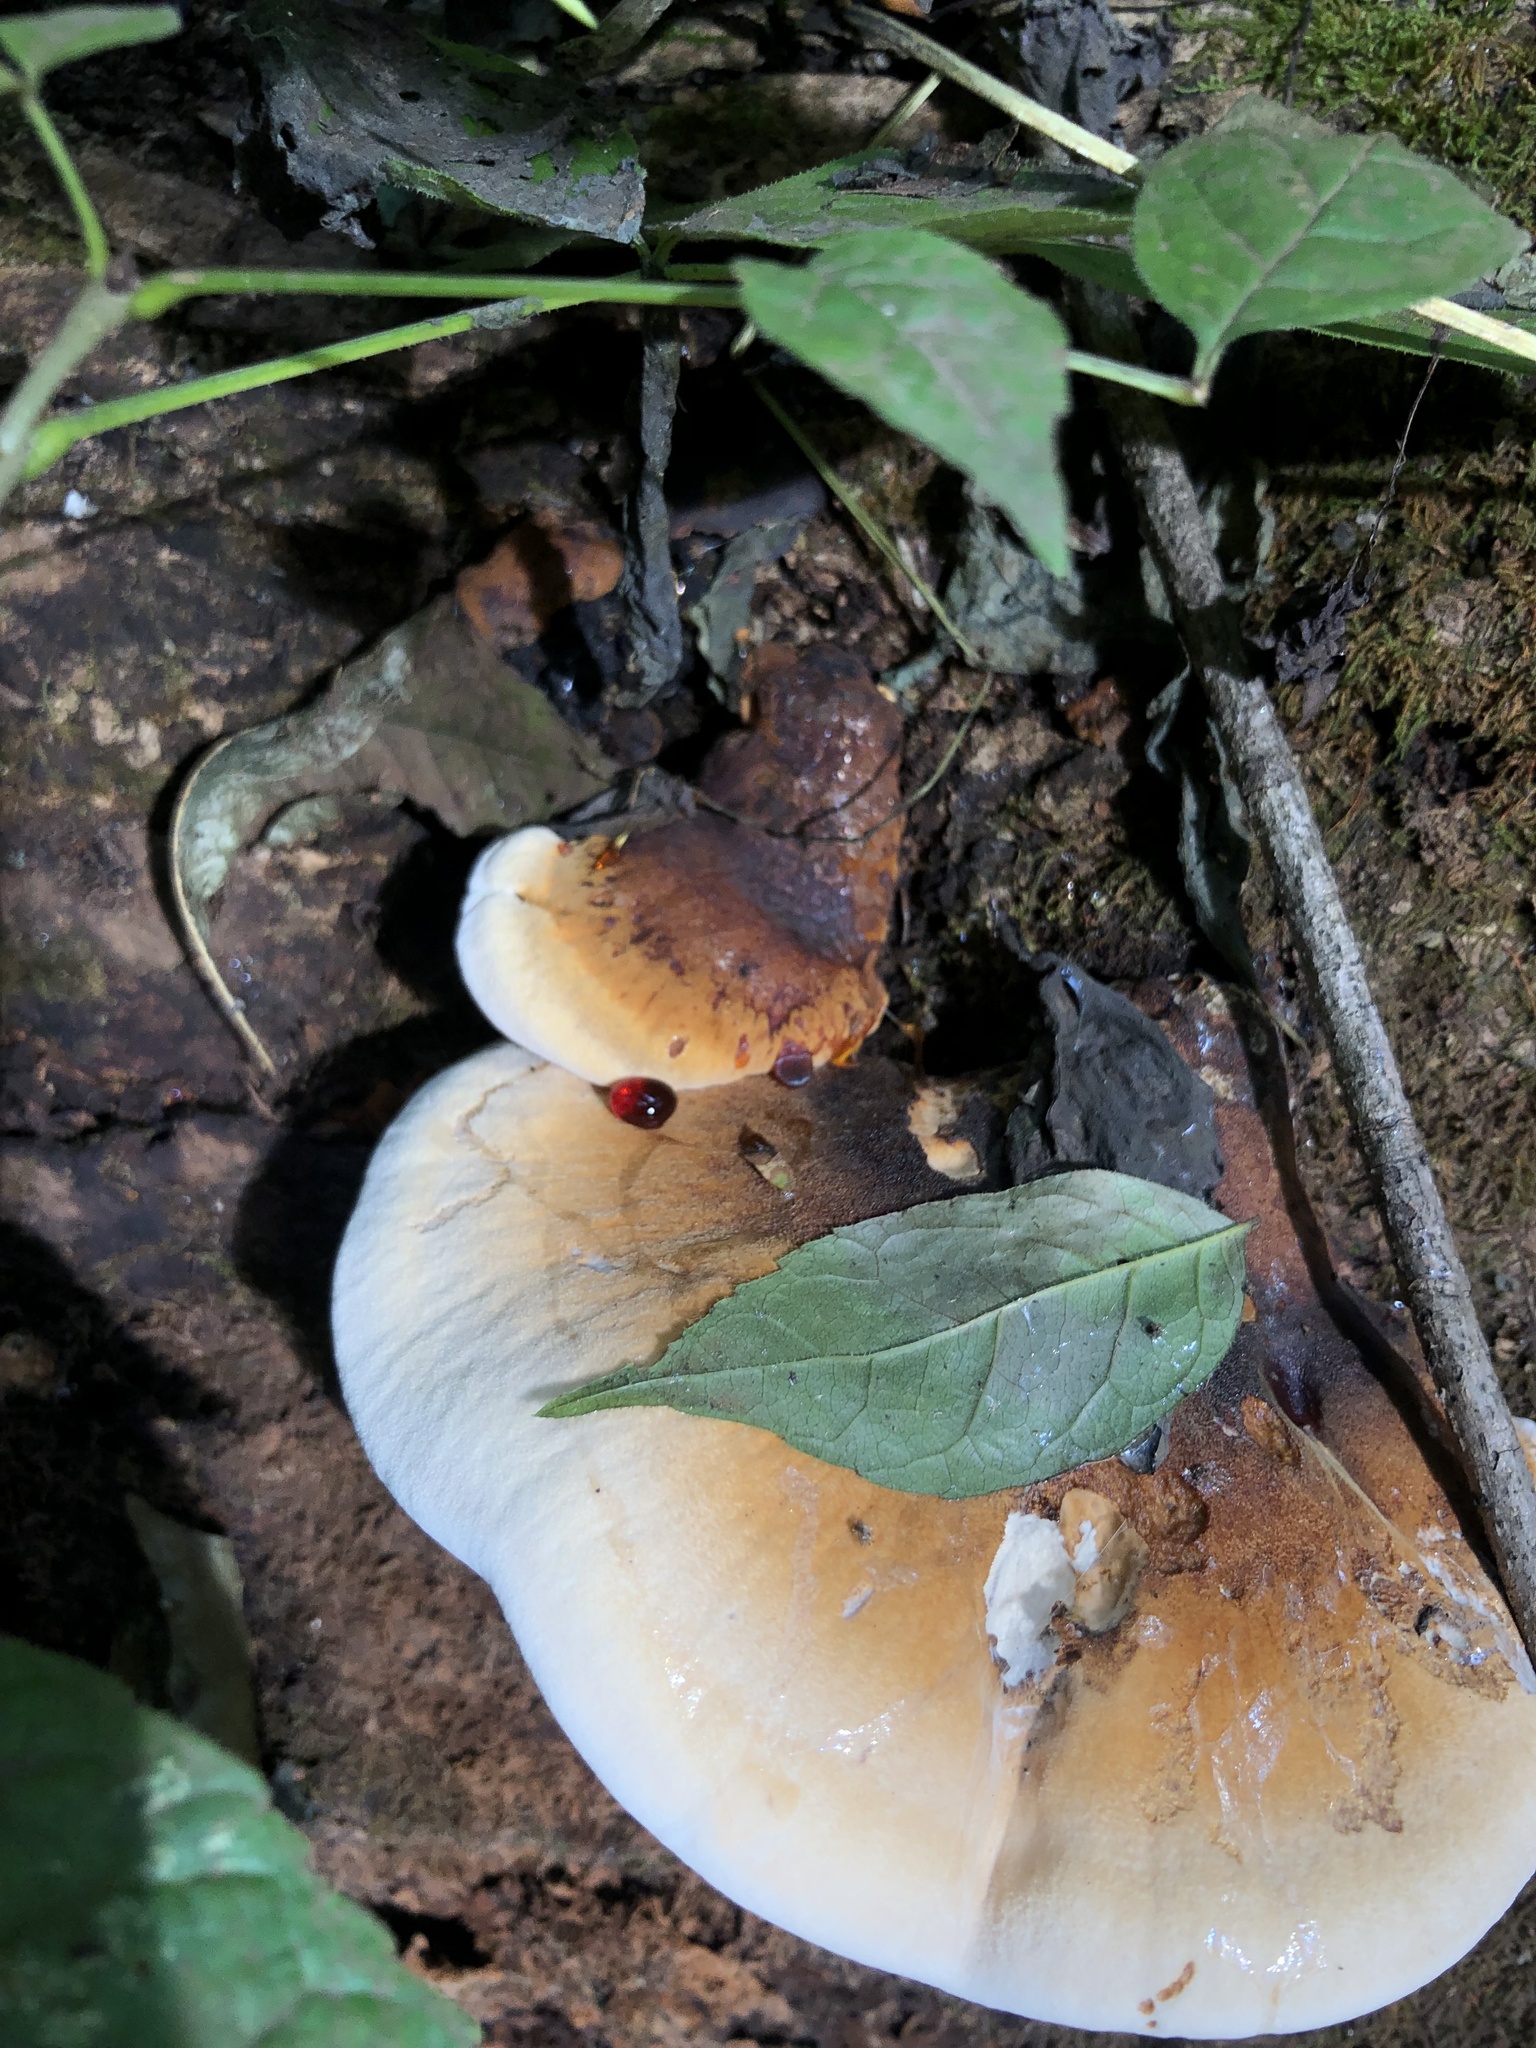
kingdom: Fungi
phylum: Basidiomycota
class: Agaricomycetes
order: Polyporales
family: Ischnodermataceae
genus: Ischnoderma
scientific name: Ischnoderma resinosum
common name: Resinous polypore
